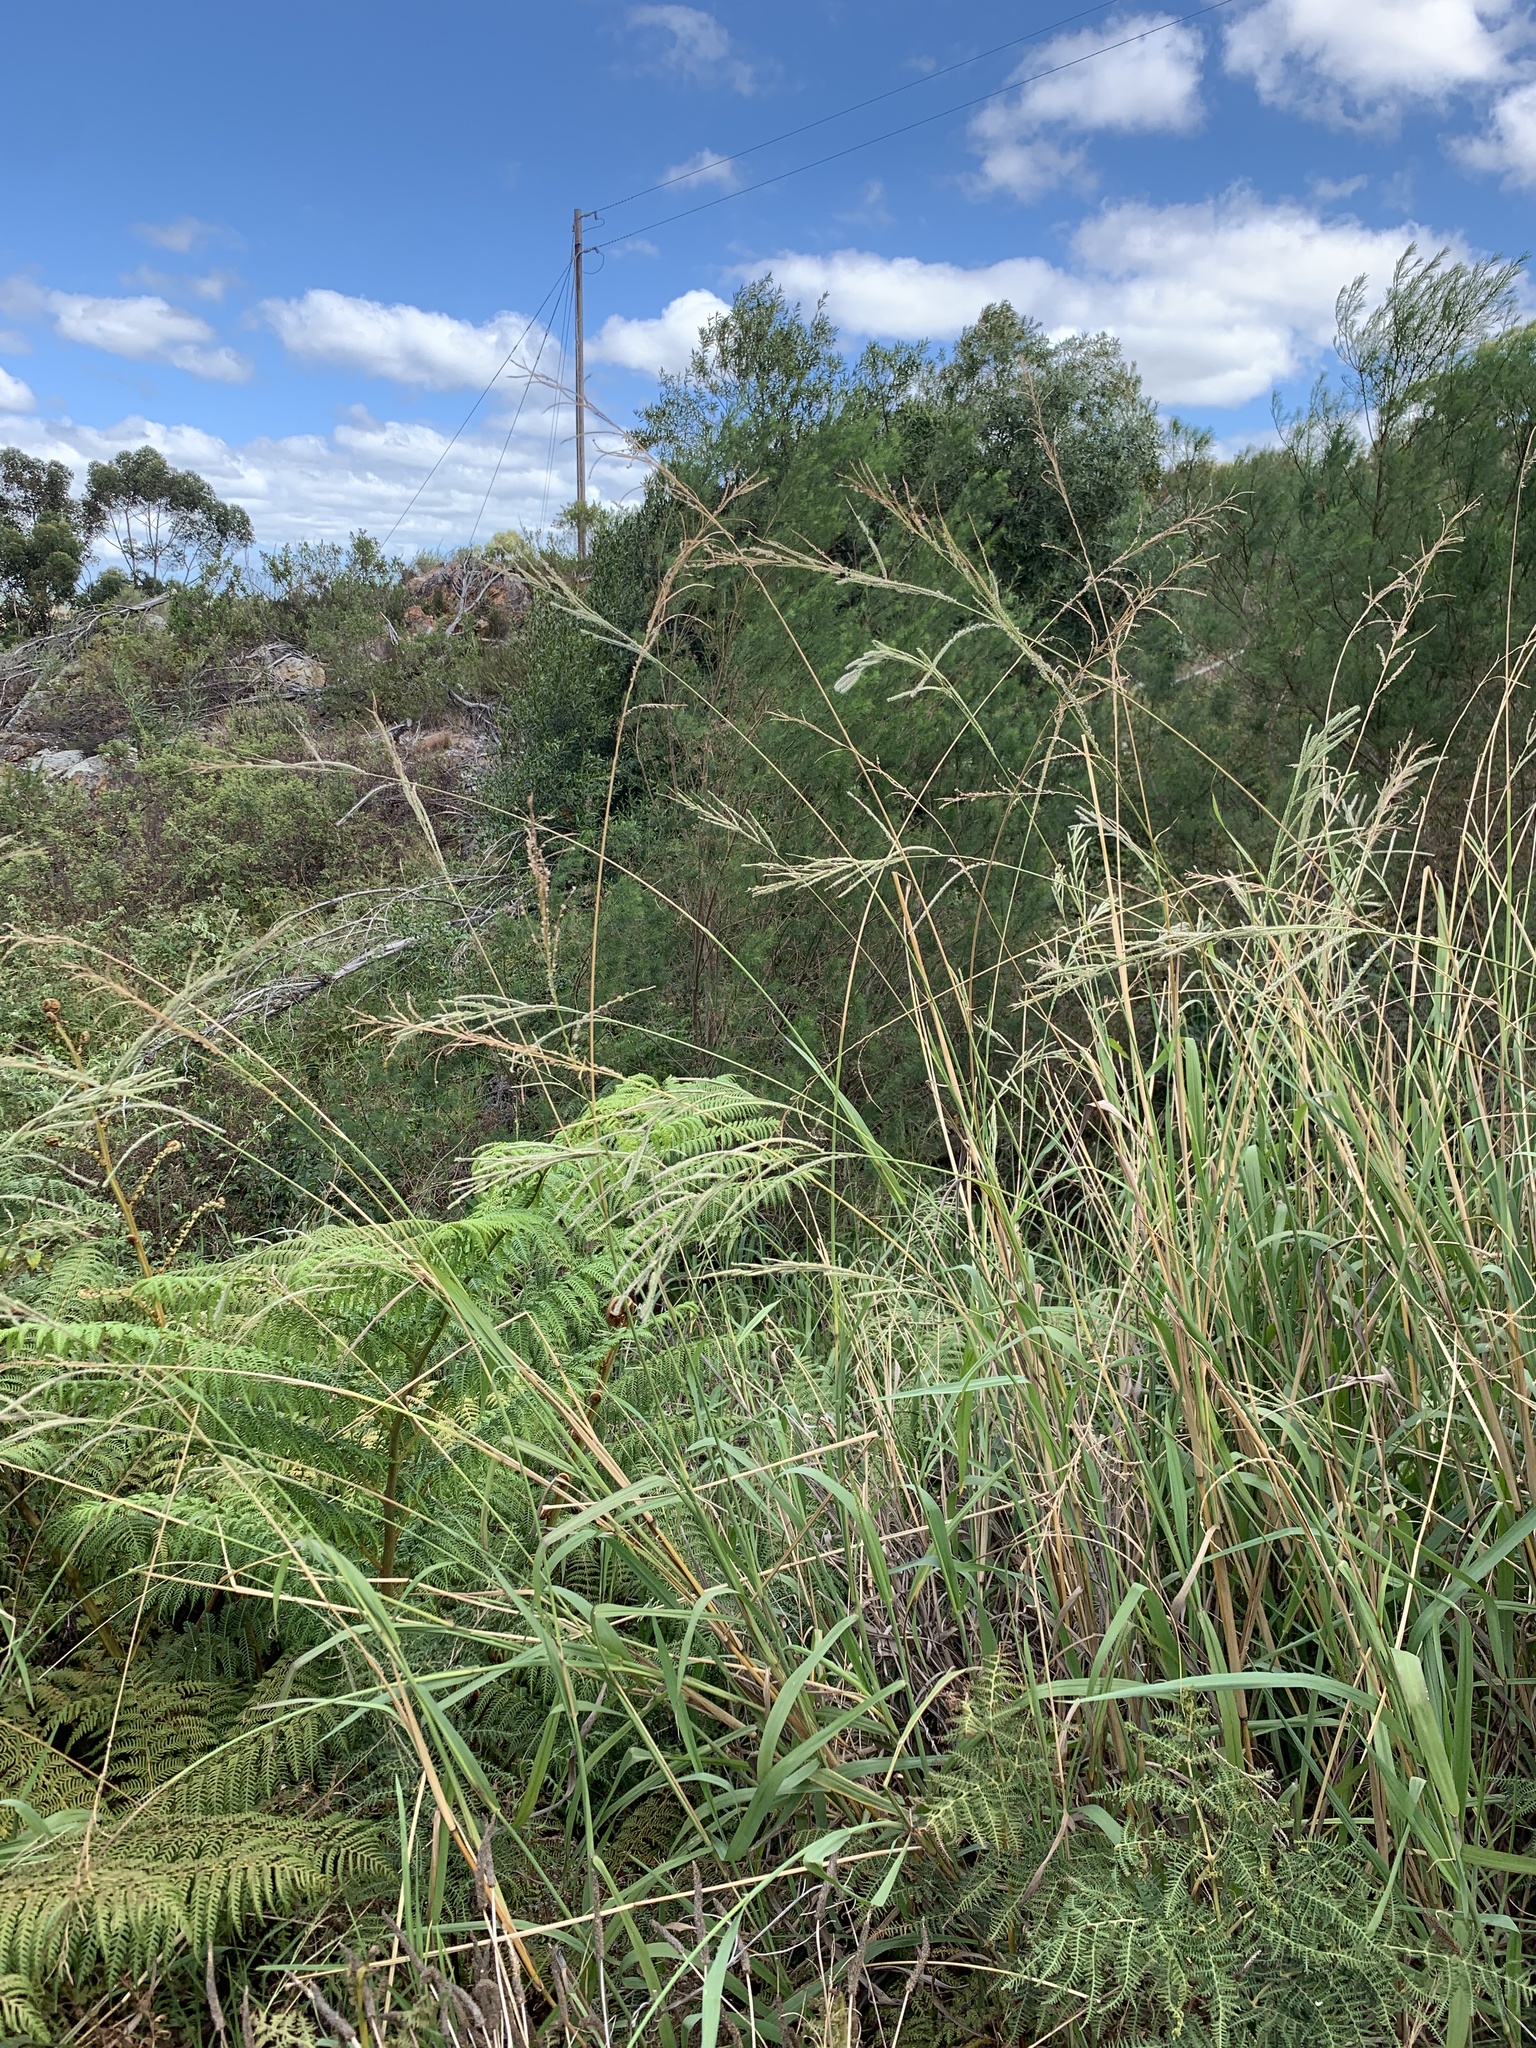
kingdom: Plantae
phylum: Tracheophyta
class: Liliopsida
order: Poales
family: Poaceae
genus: Paspalum
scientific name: Paspalum urvillei
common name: Vasey's grass
